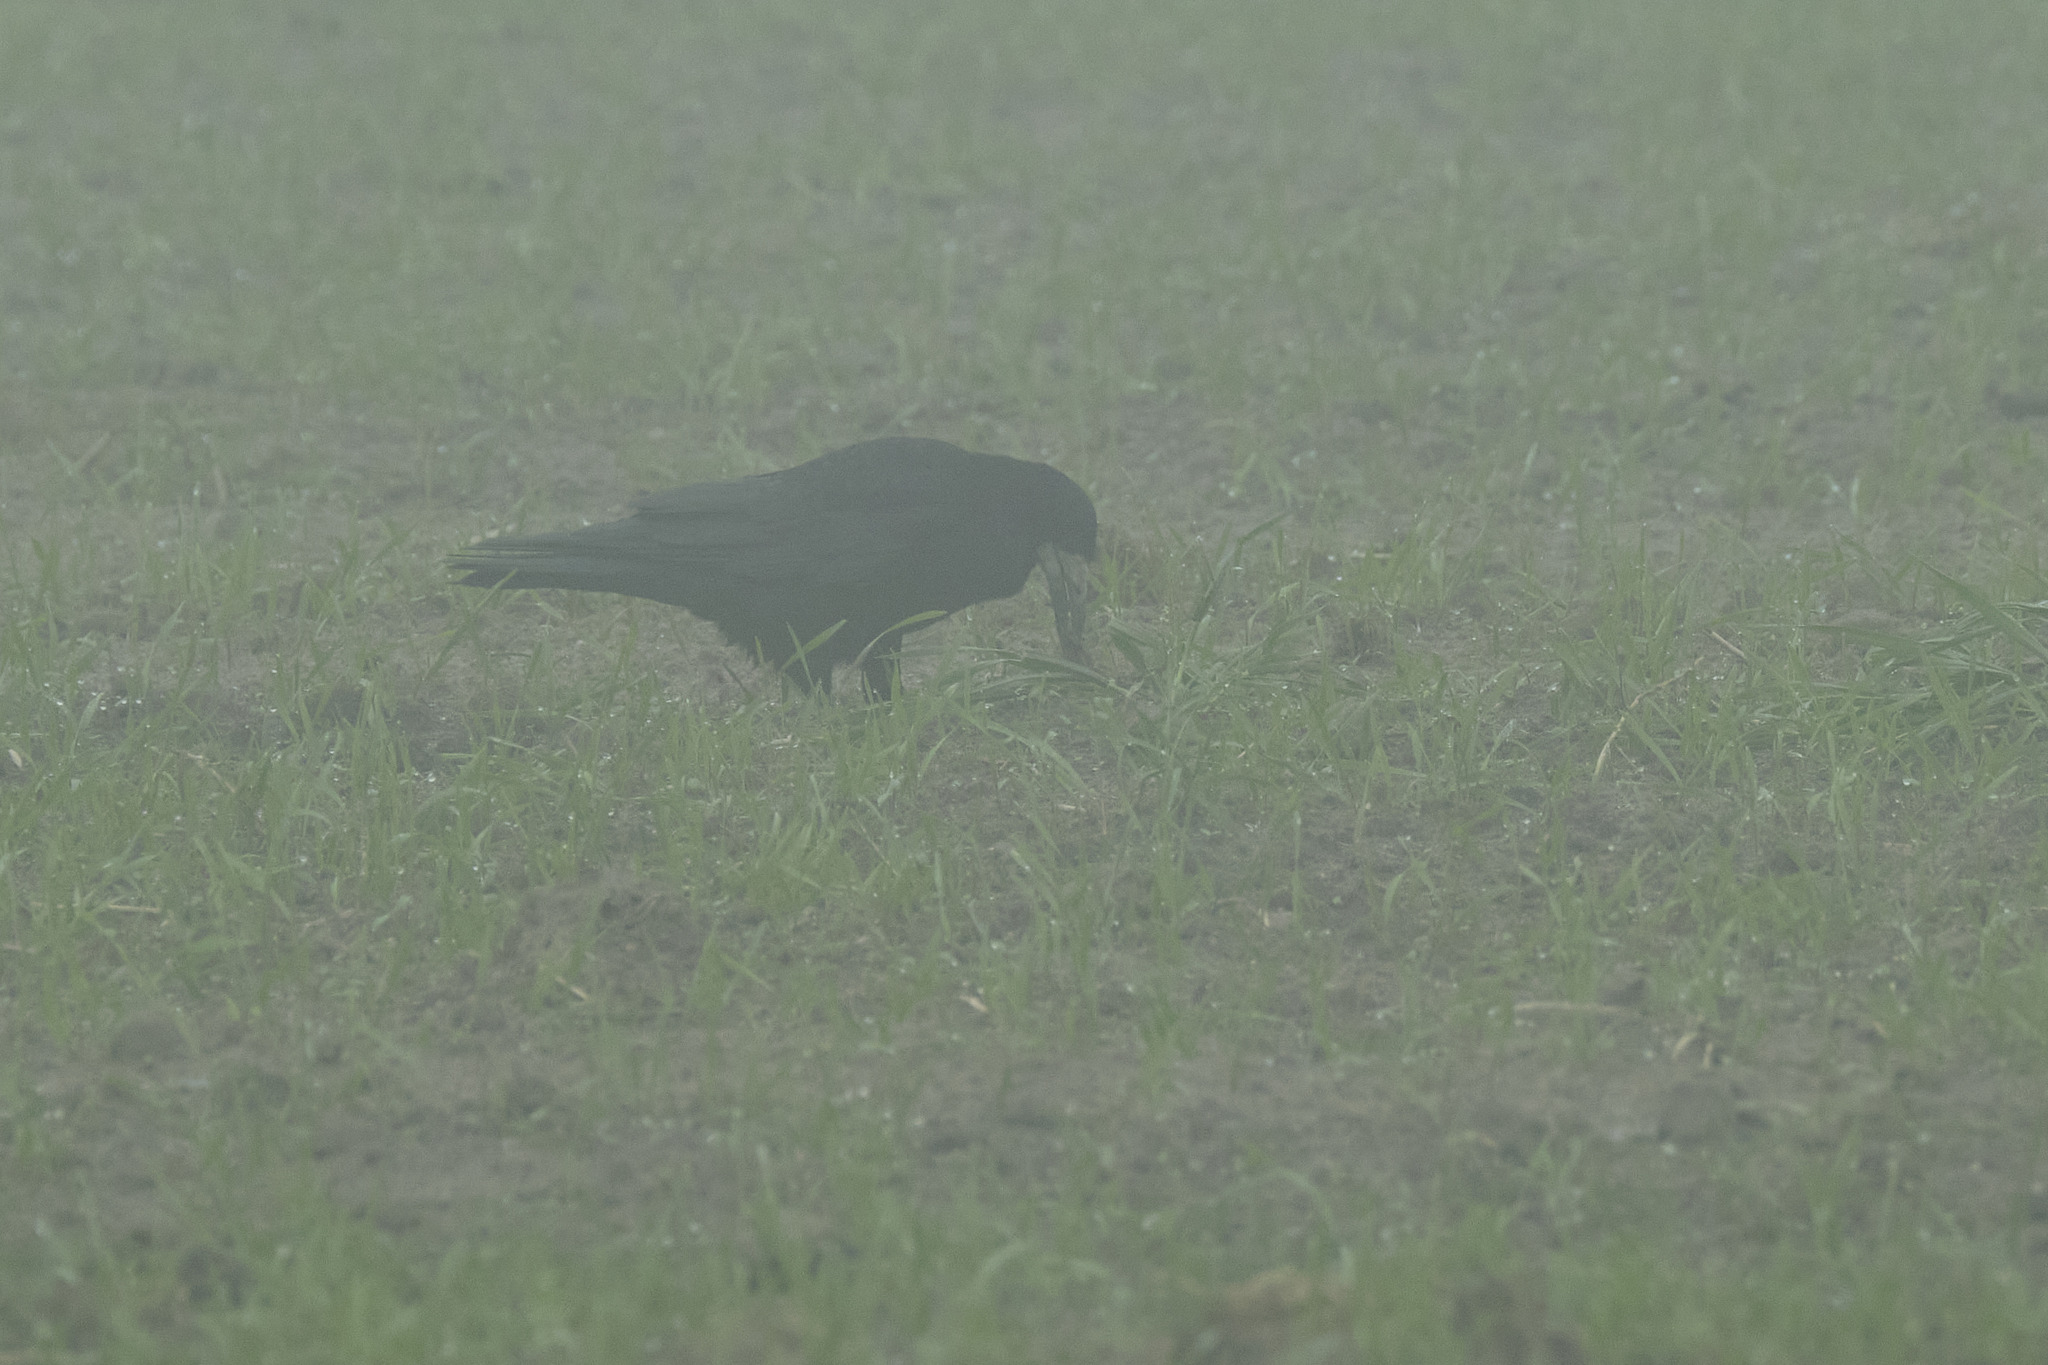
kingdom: Animalia
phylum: Chordata
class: Aves
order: Passeriformes
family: Corvidae
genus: Corvus
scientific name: Corvus frugilegus
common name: Rook
